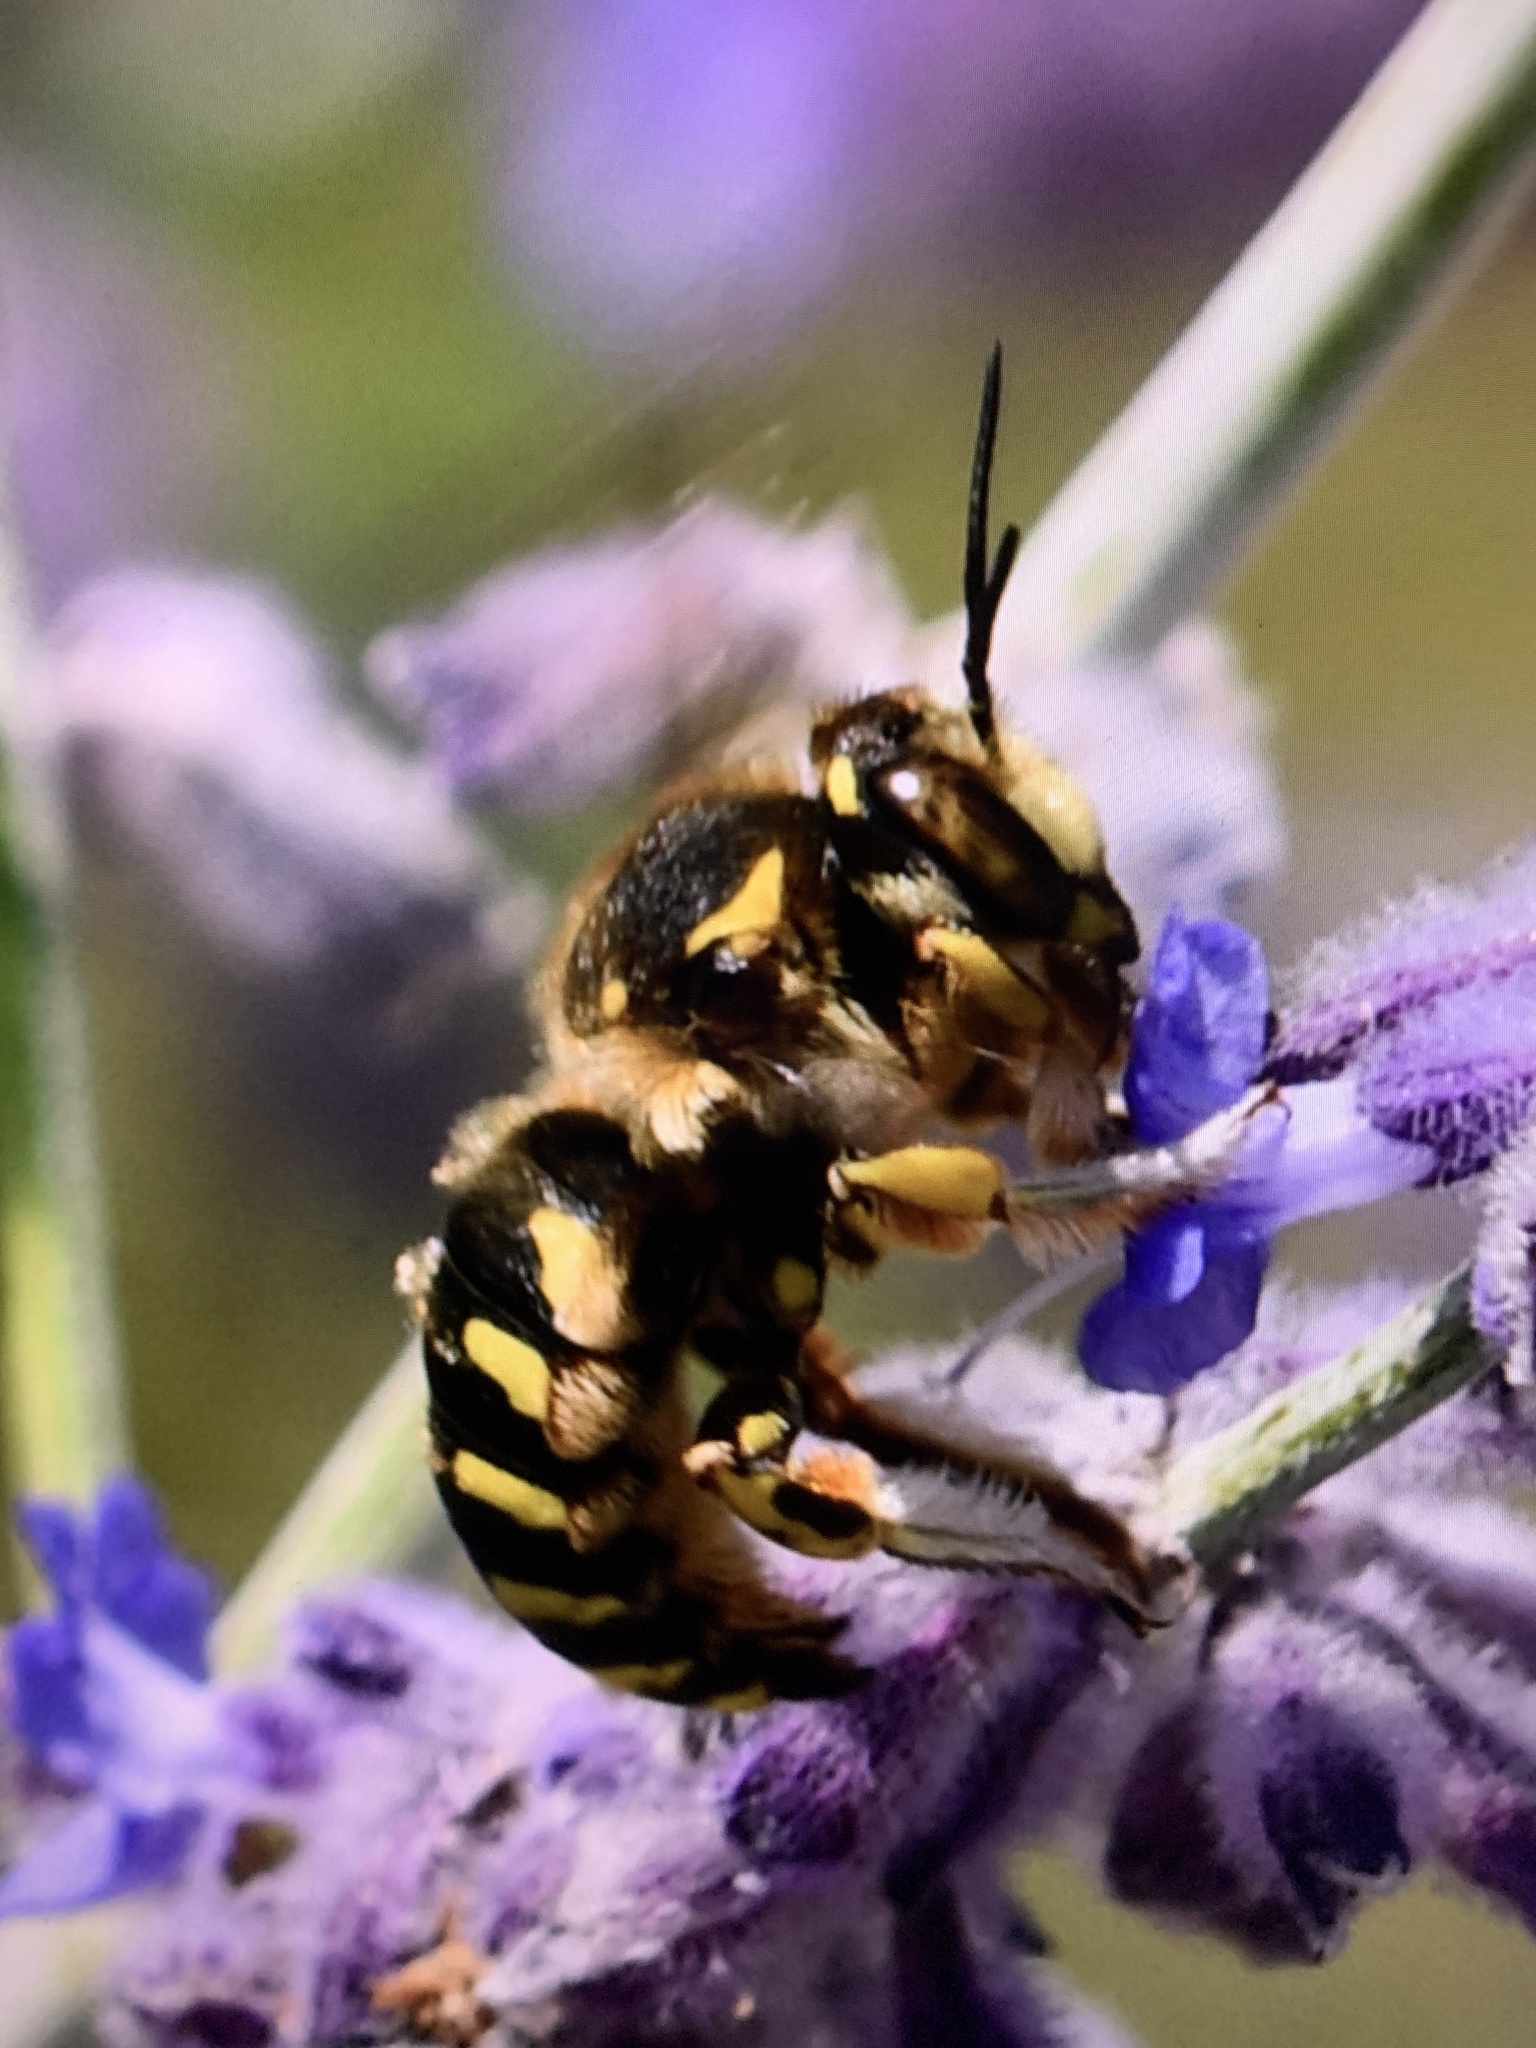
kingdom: Animalia
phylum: Arthropoda
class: Insecta
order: Hymenoptera
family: Megachilidae
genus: Anthidium
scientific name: Anthidium florentinum
